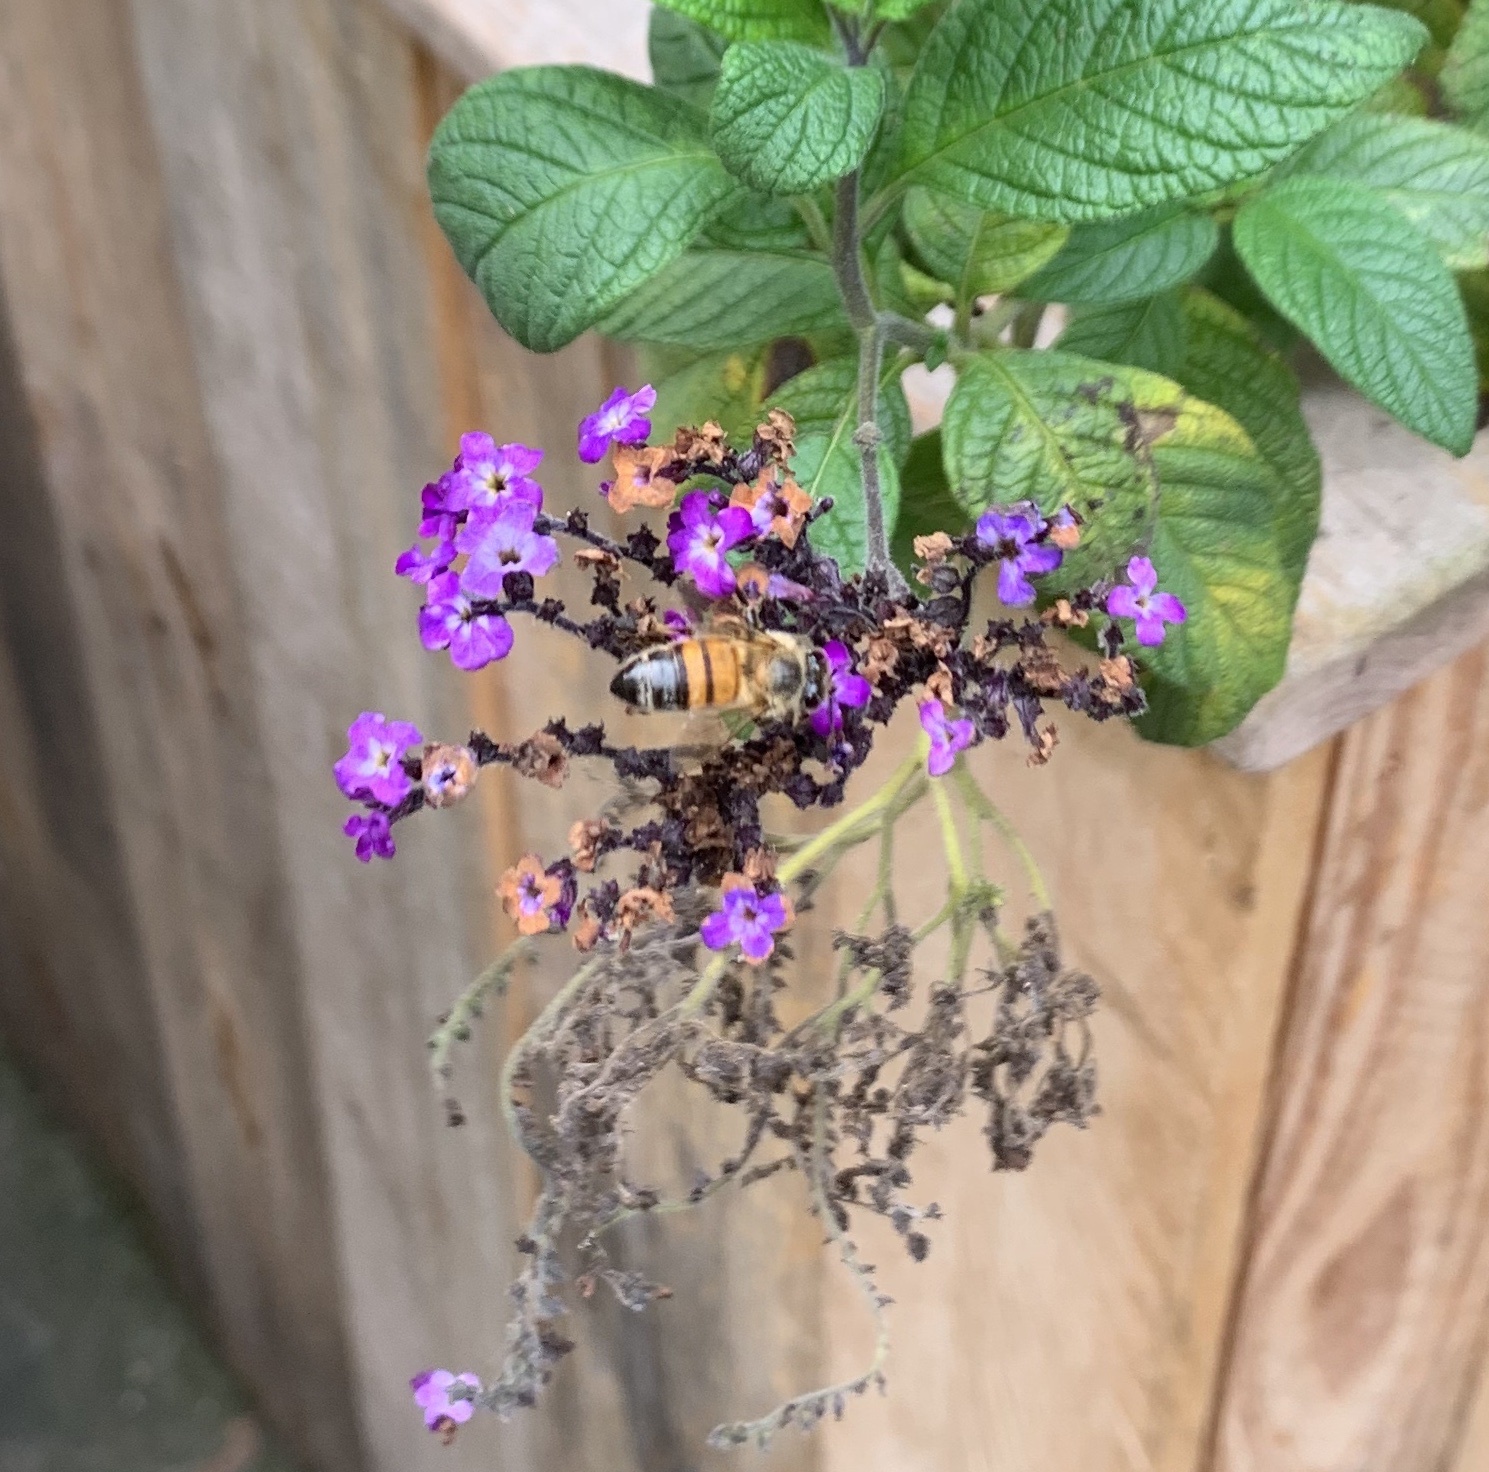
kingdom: Animalia
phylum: Arthropoda
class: Insecta
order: Hymenoptera
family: Apidae
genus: Apis
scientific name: Apis mellifera
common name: Honey bee
